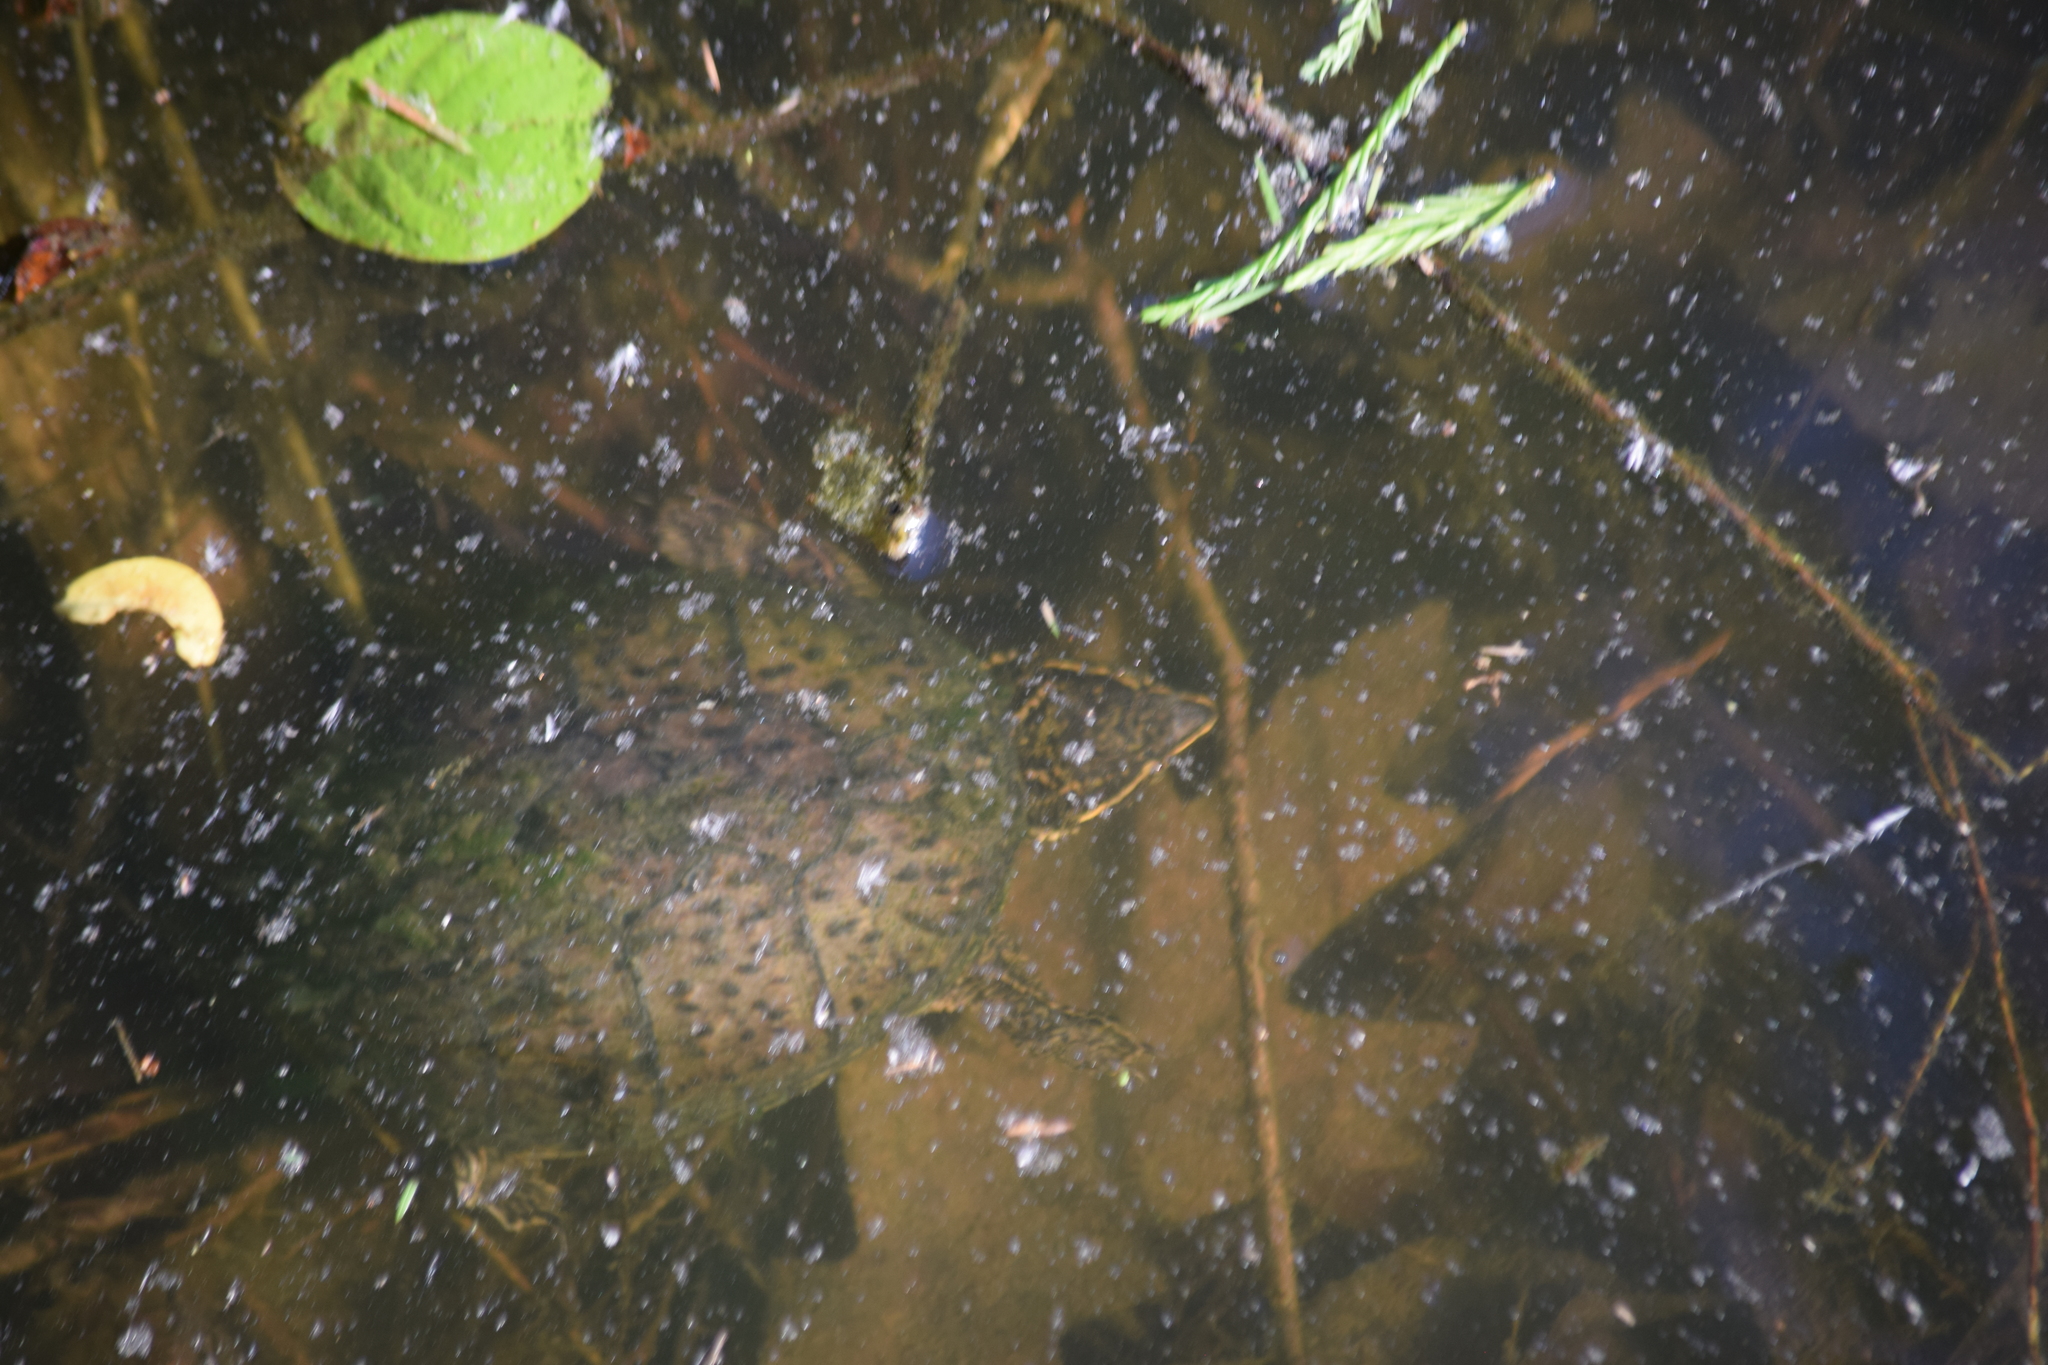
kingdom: Animalia
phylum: Chordata
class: Testudines
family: Kinosternidae
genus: Sternotherus
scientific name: Sternotherus odoratus
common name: Common musk turtle
